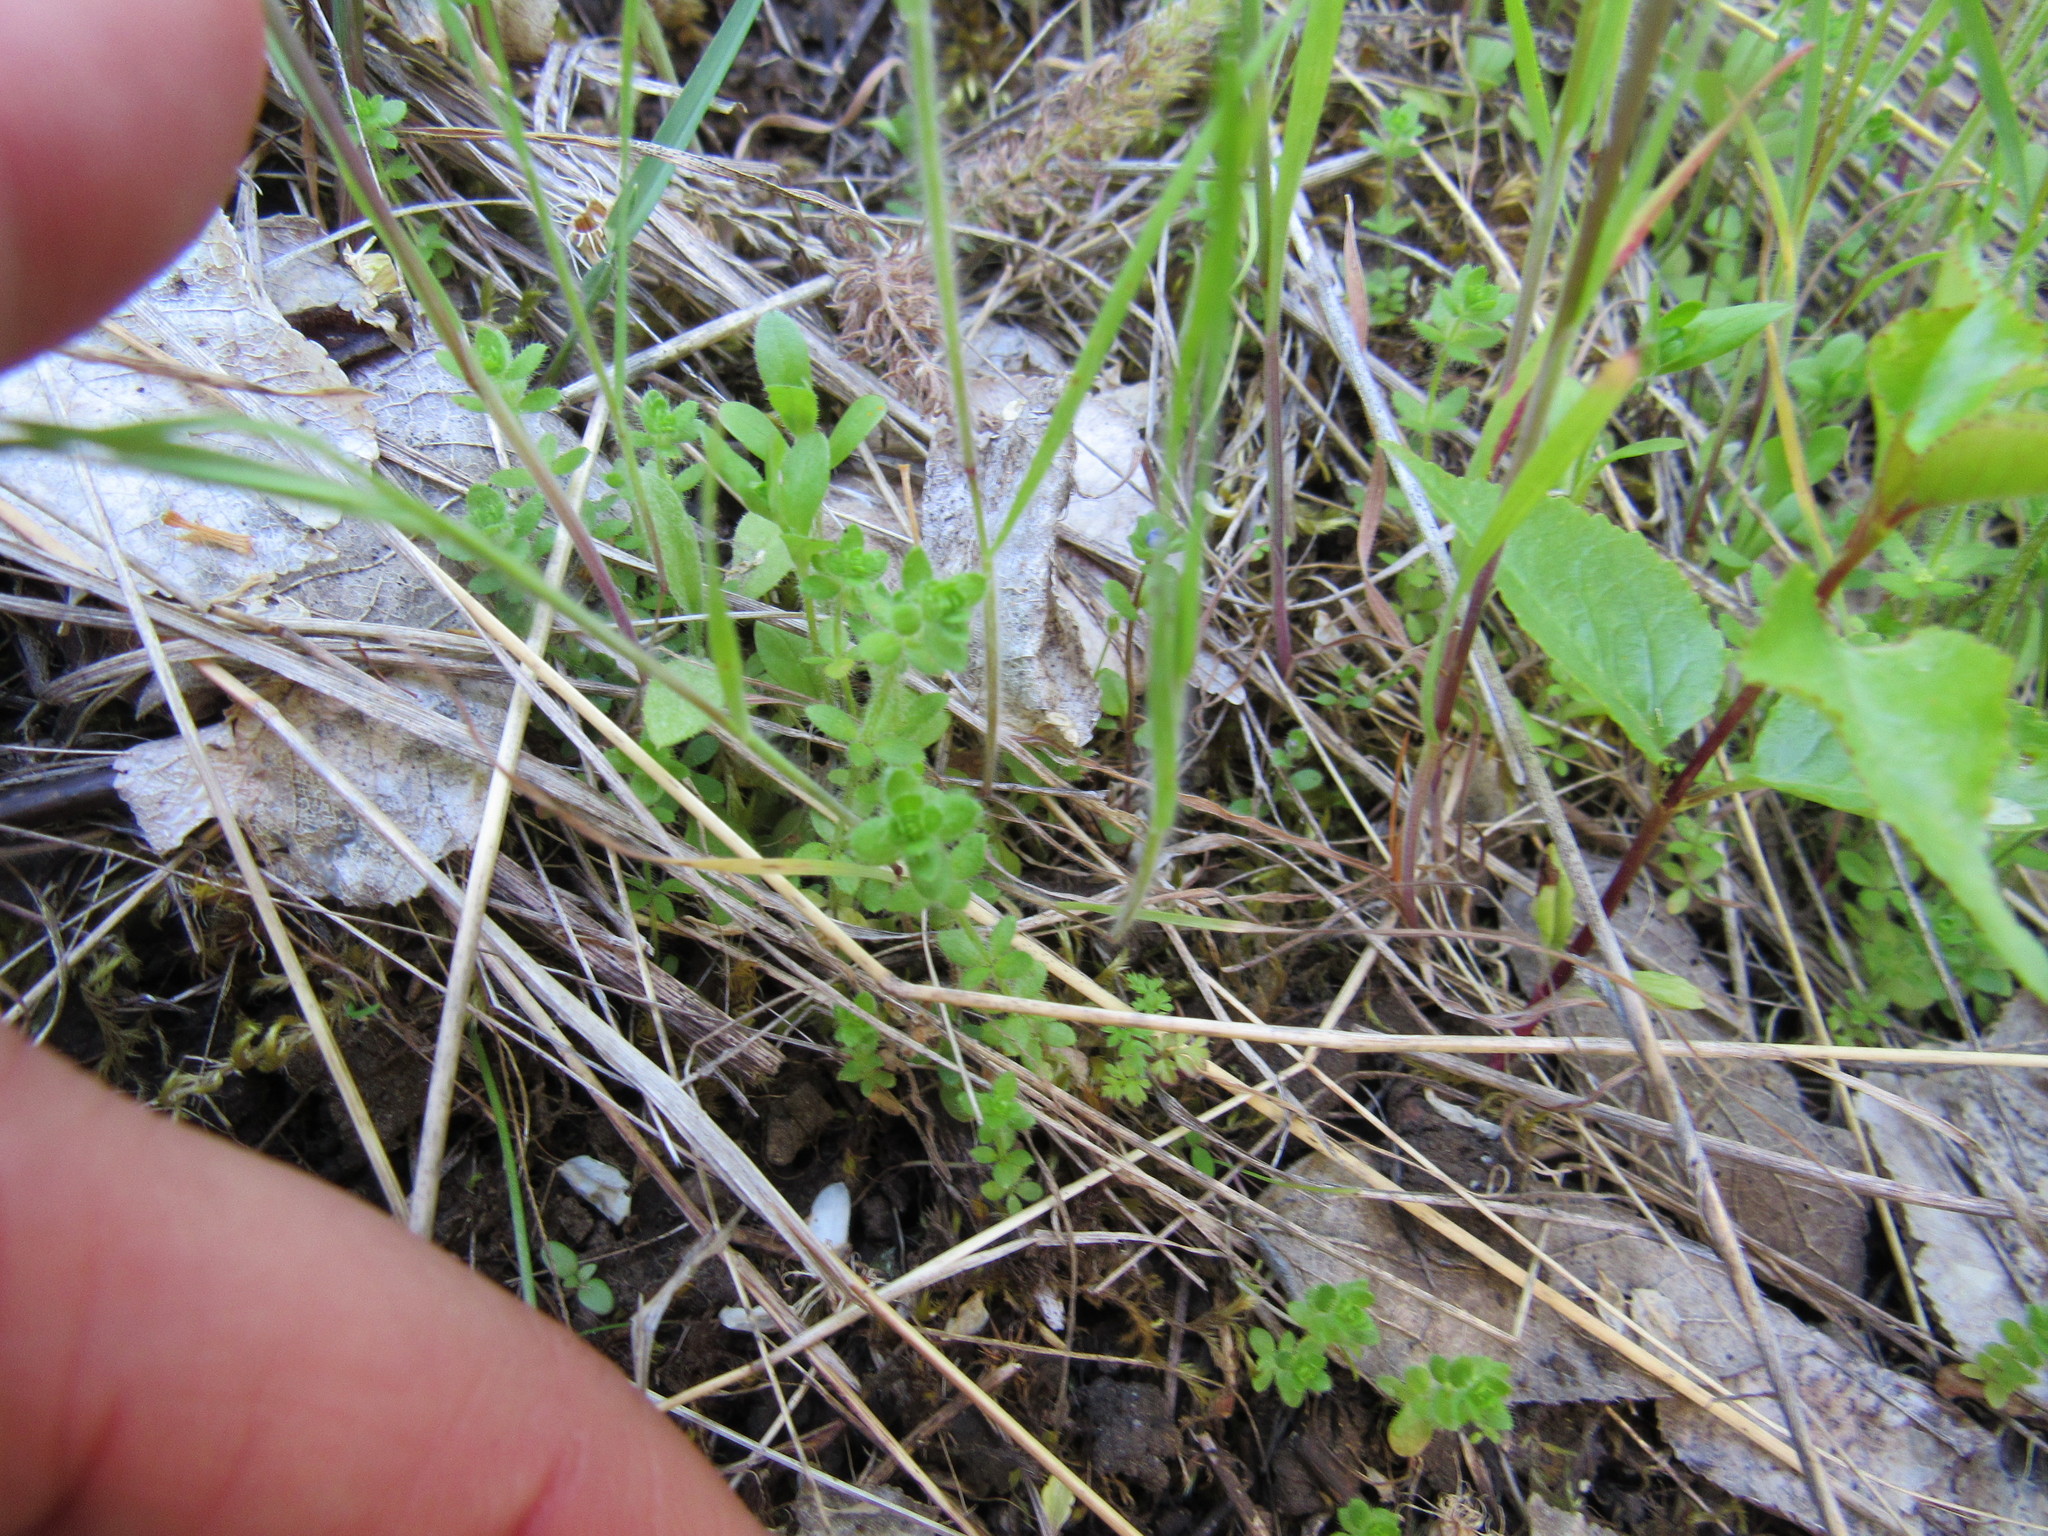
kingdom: Plantae
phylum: Tracheophyta
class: Magnoliopsida
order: Gentianales
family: Rubiaceae
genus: Cruciata
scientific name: Cruciata pedemontana
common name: Piedmont bedstraw
